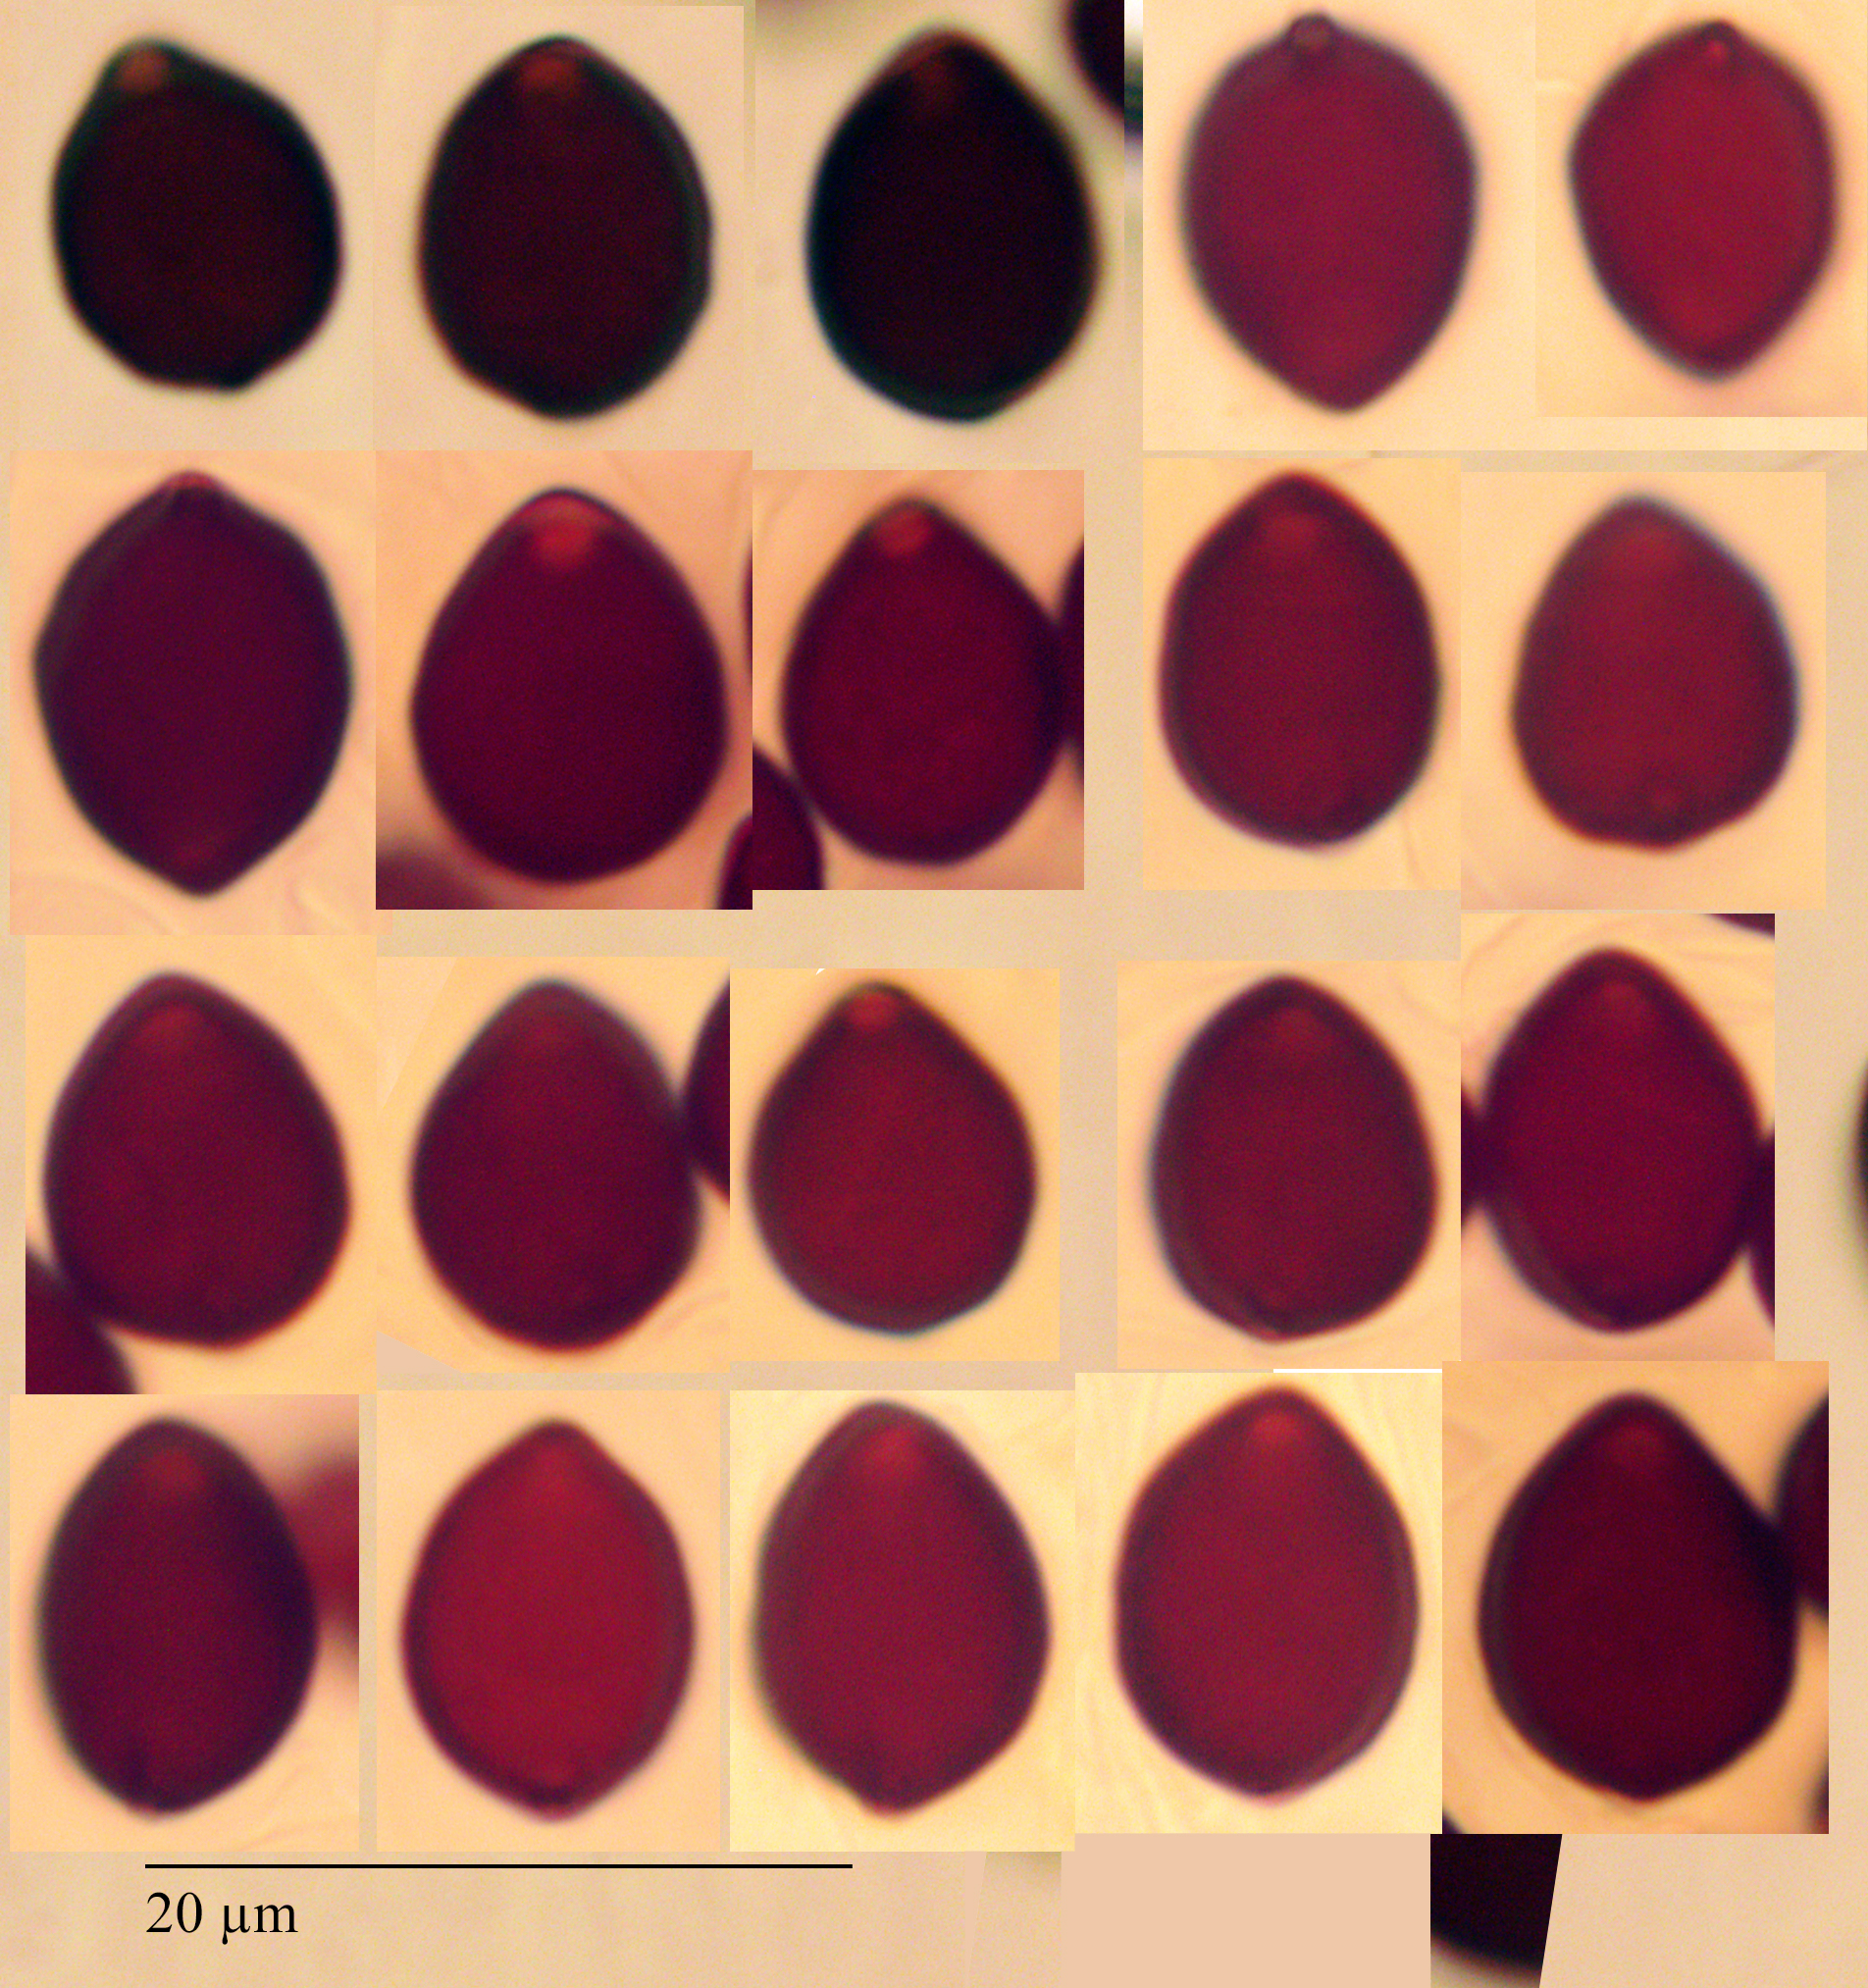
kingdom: Fungi
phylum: Basidiomycota
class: Agaricomycetes
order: Agaricales
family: Psathyrellaceae
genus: Parasola
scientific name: Parasola lactea
